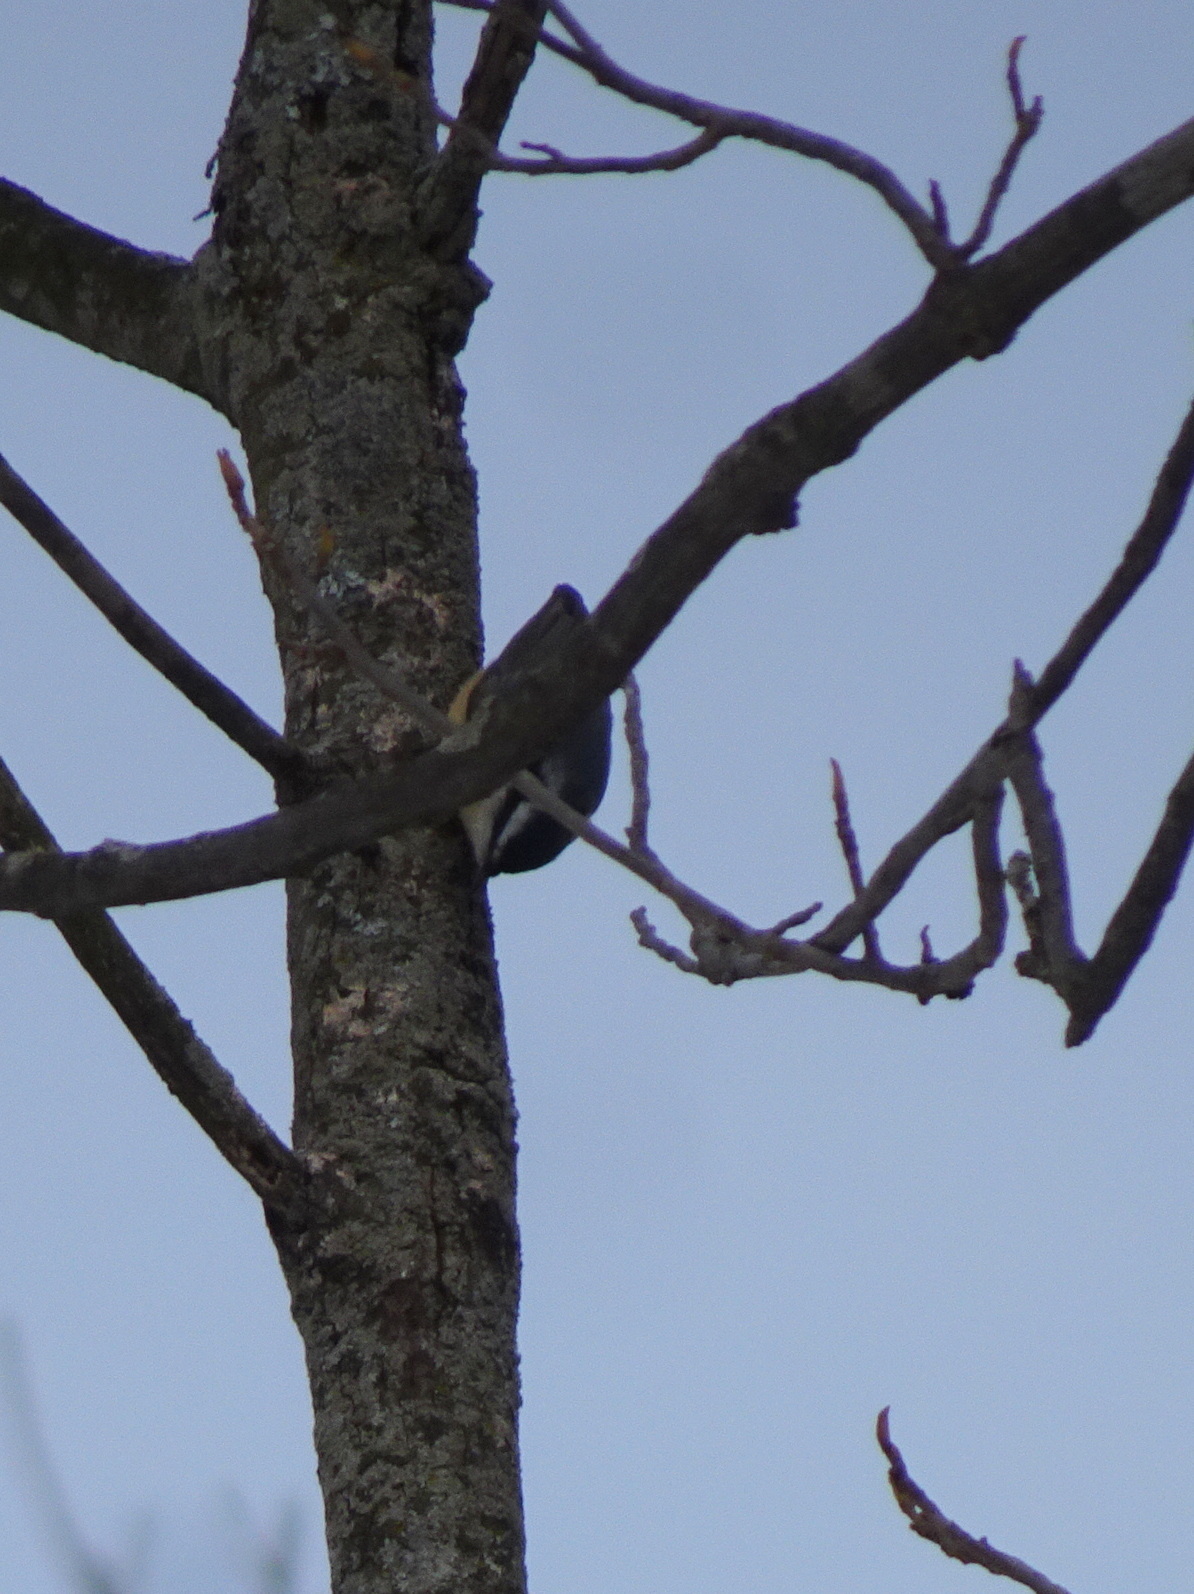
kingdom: Animalia
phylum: Chordata
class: Aves
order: Passeriformes
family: Sittidae
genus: Sitta
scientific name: Sitta canadensis
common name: Red-breasted nuthatch
